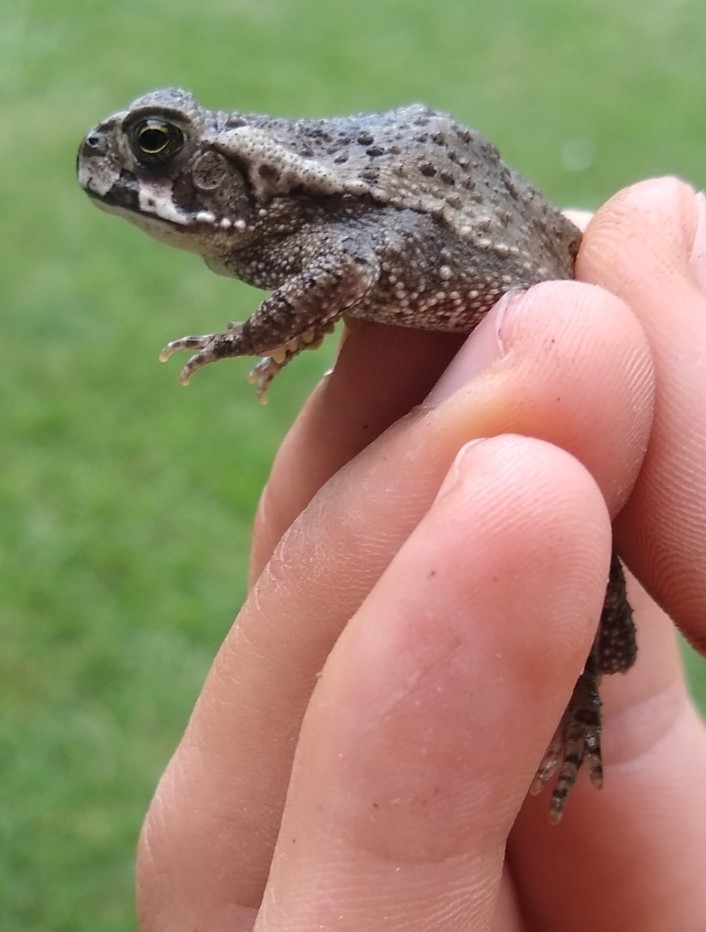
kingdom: Animalia
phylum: Chordata
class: Amphibia
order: Anura
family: Bufonidae
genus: Rhinella
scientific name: Rhinella arenarum
